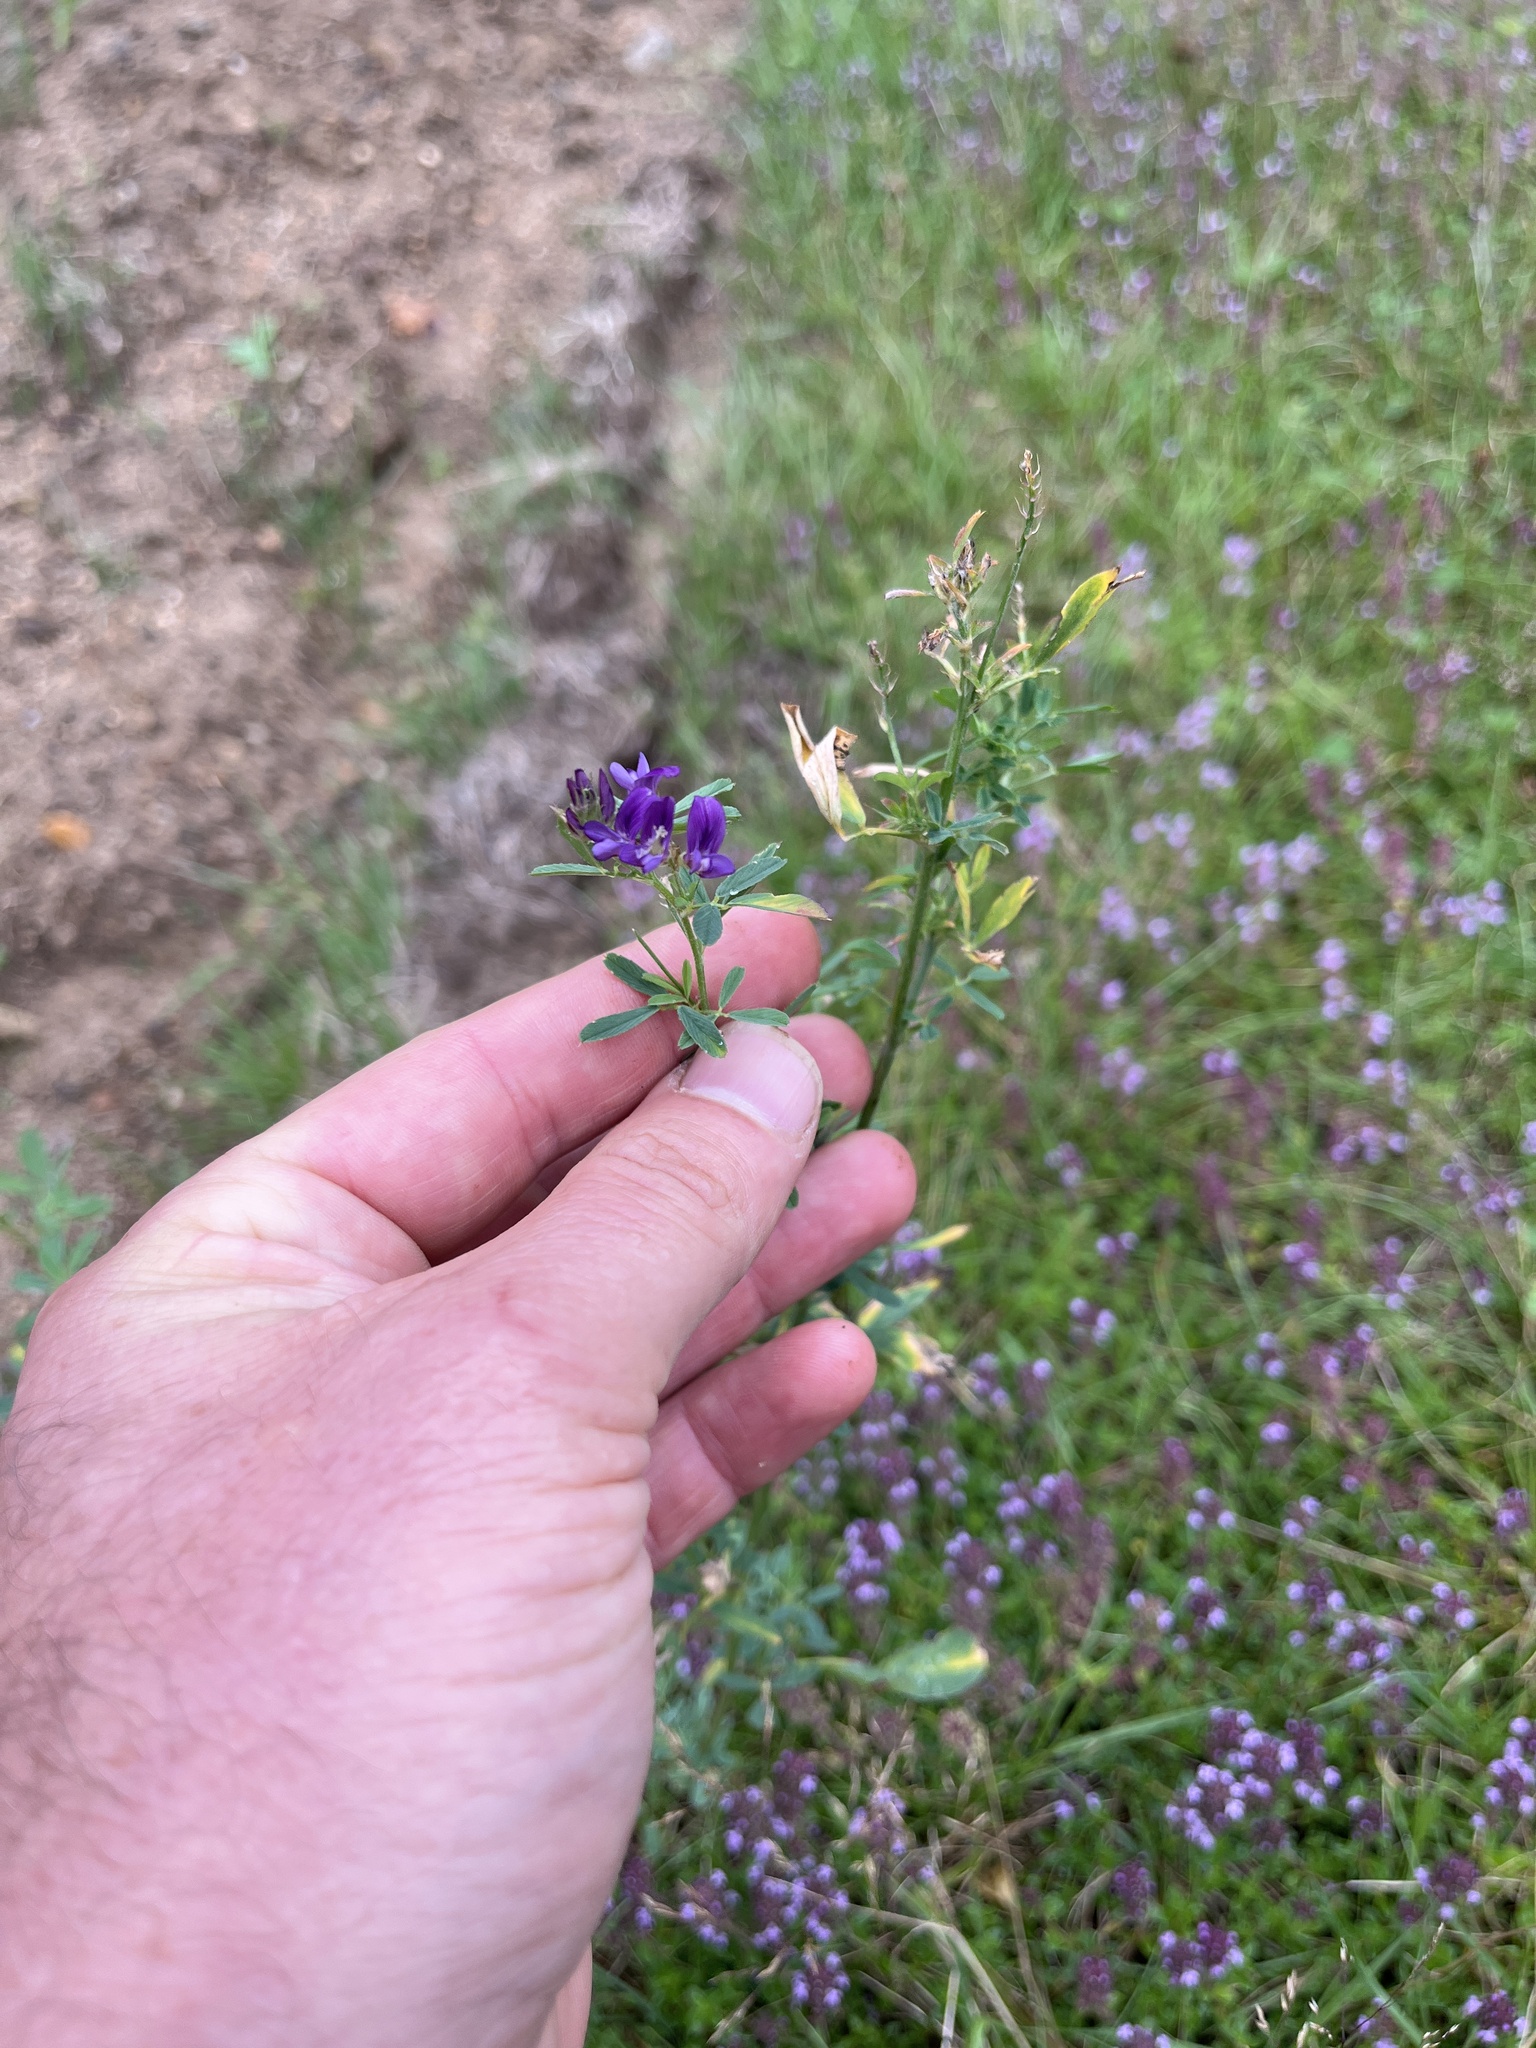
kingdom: Plantae
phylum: Tracheophyta
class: Magnoliopsida
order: Fabales
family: Fabaceae
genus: Medicago
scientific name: Medicago sativa
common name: Alfalfa
